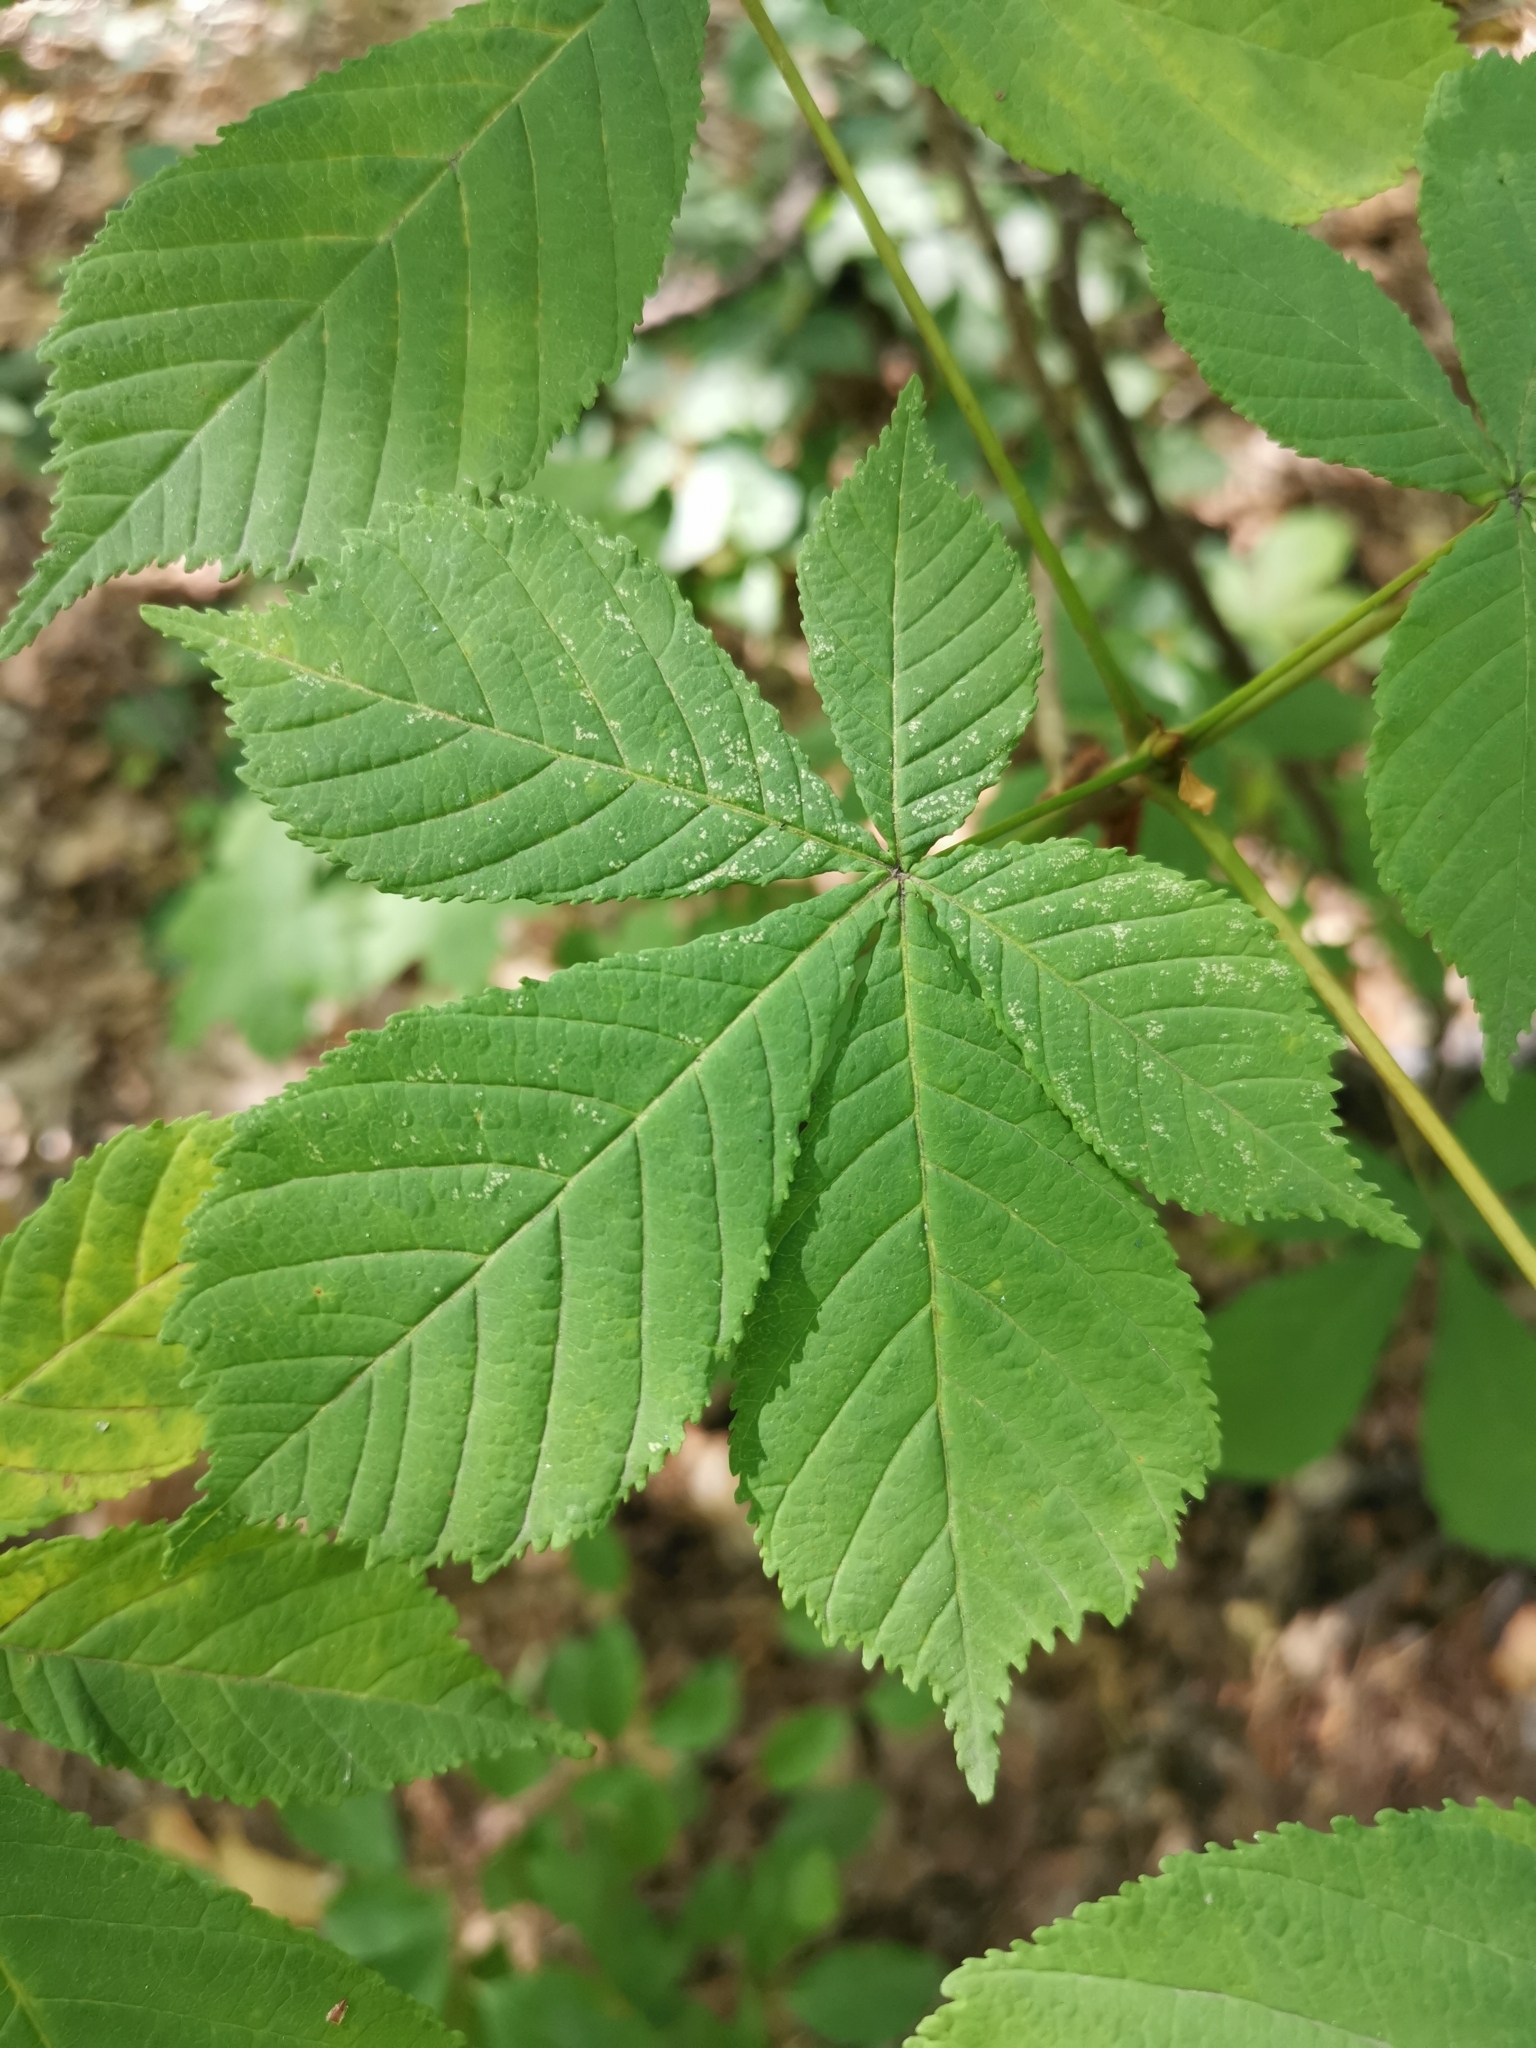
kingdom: Plantae
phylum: Tracheophyta
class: Magnoliopsida
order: Sapindales
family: Sapindaceae
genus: Aesculus
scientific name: Aesculus hippocastanum
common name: Horse-chestnut
